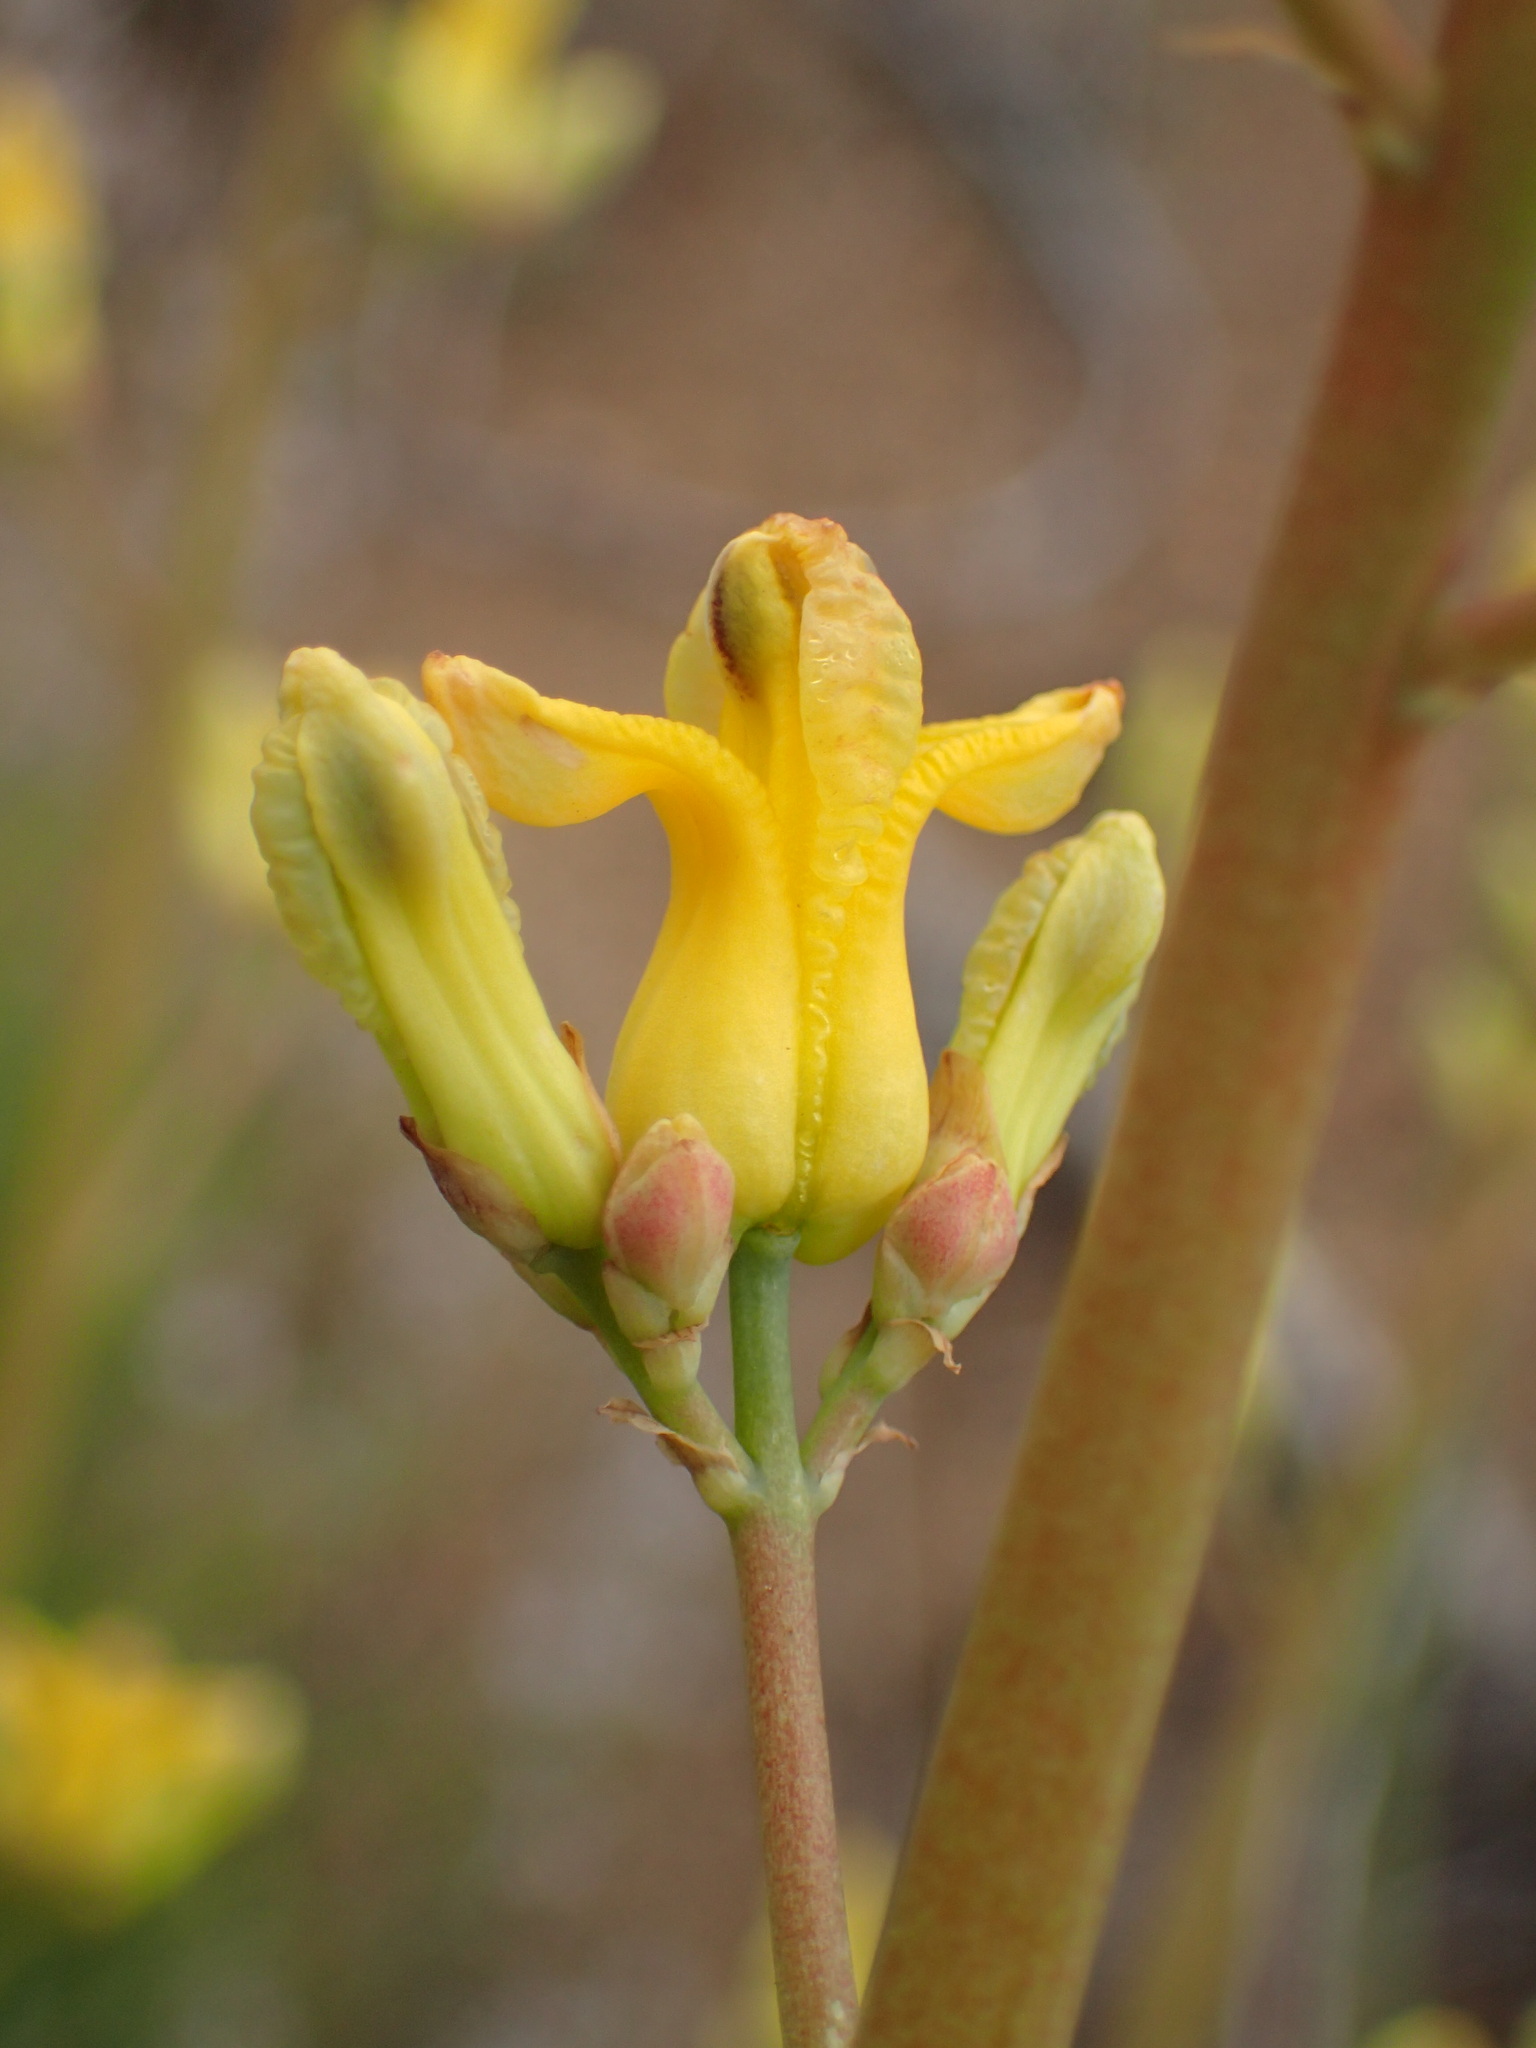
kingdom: Plantae
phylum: Tracheophyta
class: Magnoliopsida
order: Ranunculales
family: Papaveraceae
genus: Ehrendorferia
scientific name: Ehrendorferia chrysantha
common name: Golden eardrops
